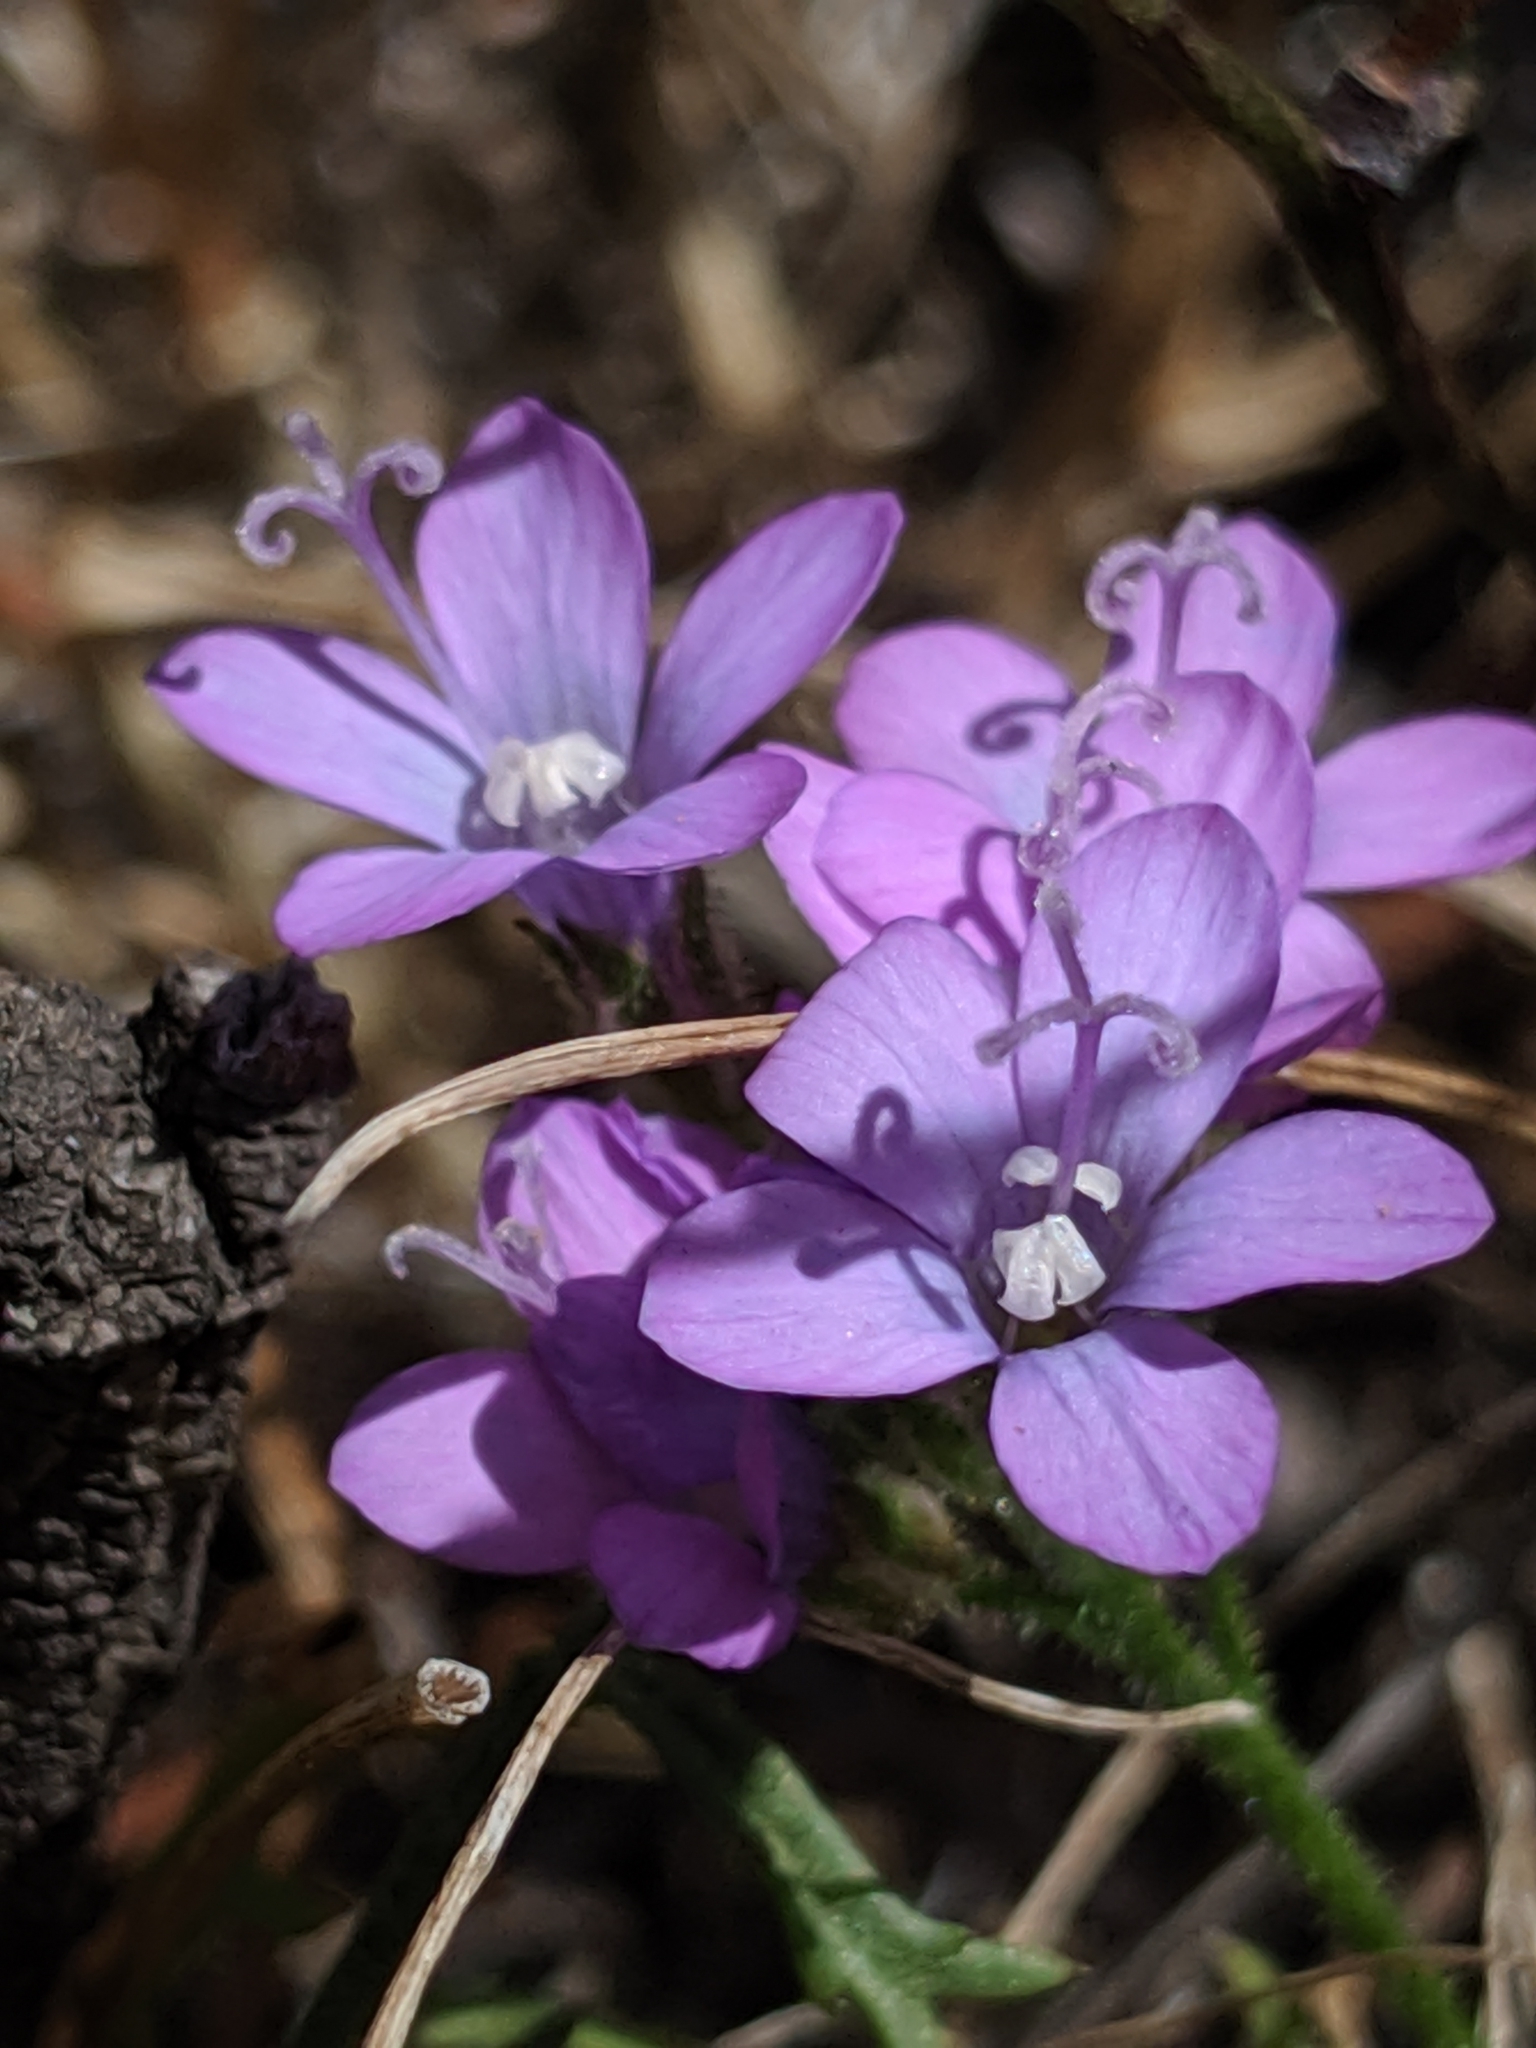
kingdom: Plantae
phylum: Tracheophyta
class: Magnoliopsida
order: Ericales
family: Polemoniaceae
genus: Gilia
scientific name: Gilia achilleifolia
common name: California gily-flower
